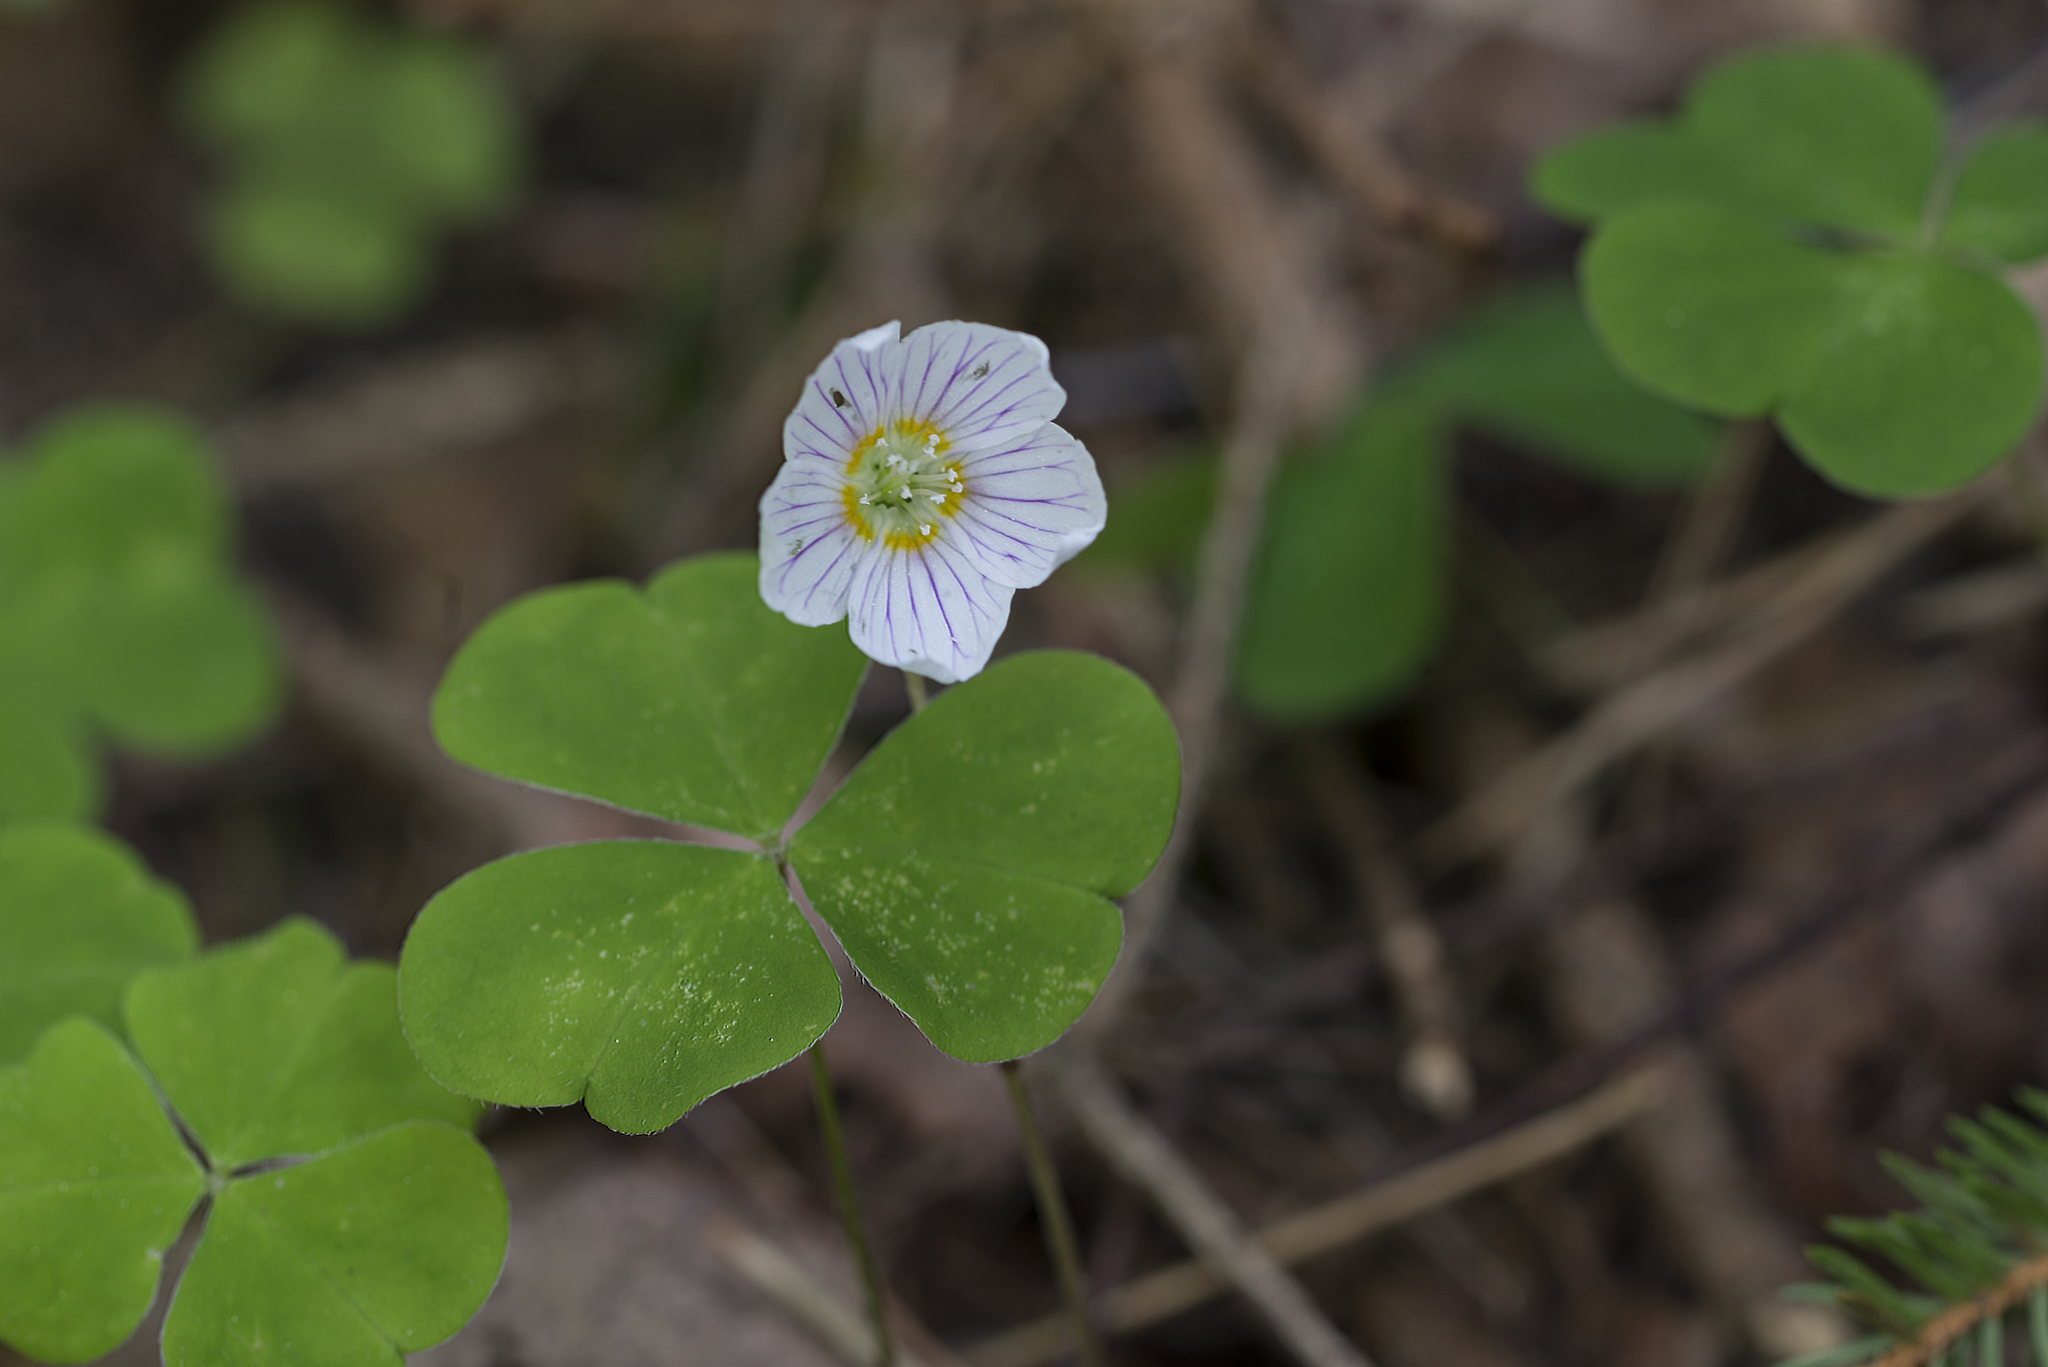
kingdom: Plantae
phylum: Tracheophyta
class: Magnoliopsida
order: Oxalidales
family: Oxalidaceae
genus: Oxalis
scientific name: Oxalis acetosella
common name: Wood-sorrel
